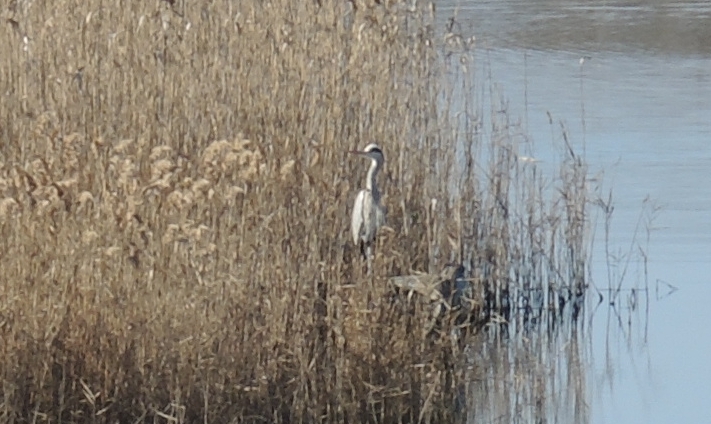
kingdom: Animalia
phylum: Chordata
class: Aves
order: Pelecaniformes
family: Ardeidae
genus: Ardea
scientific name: Ardea cinerea
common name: Grey heron
